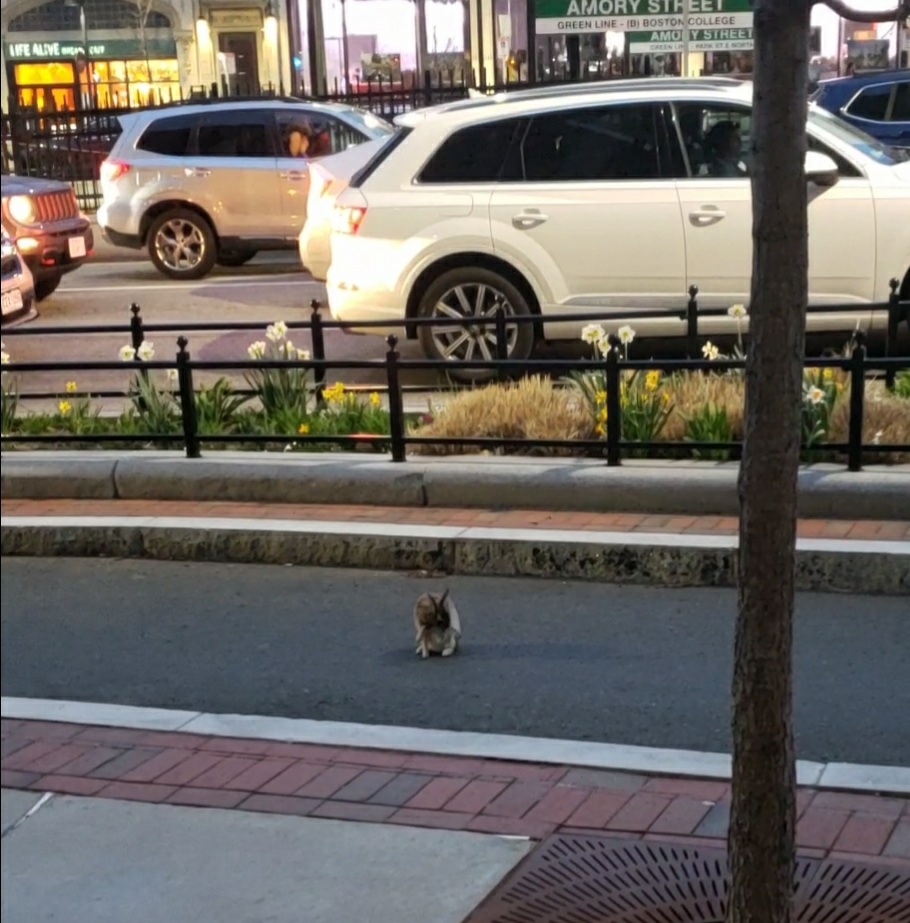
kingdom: Animalia
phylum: Chordata
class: Mammalia
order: Lagomorpha
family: Leporidae
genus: Sylvilagus
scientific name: Sylvilagus floridanus
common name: Eastern cottontail
